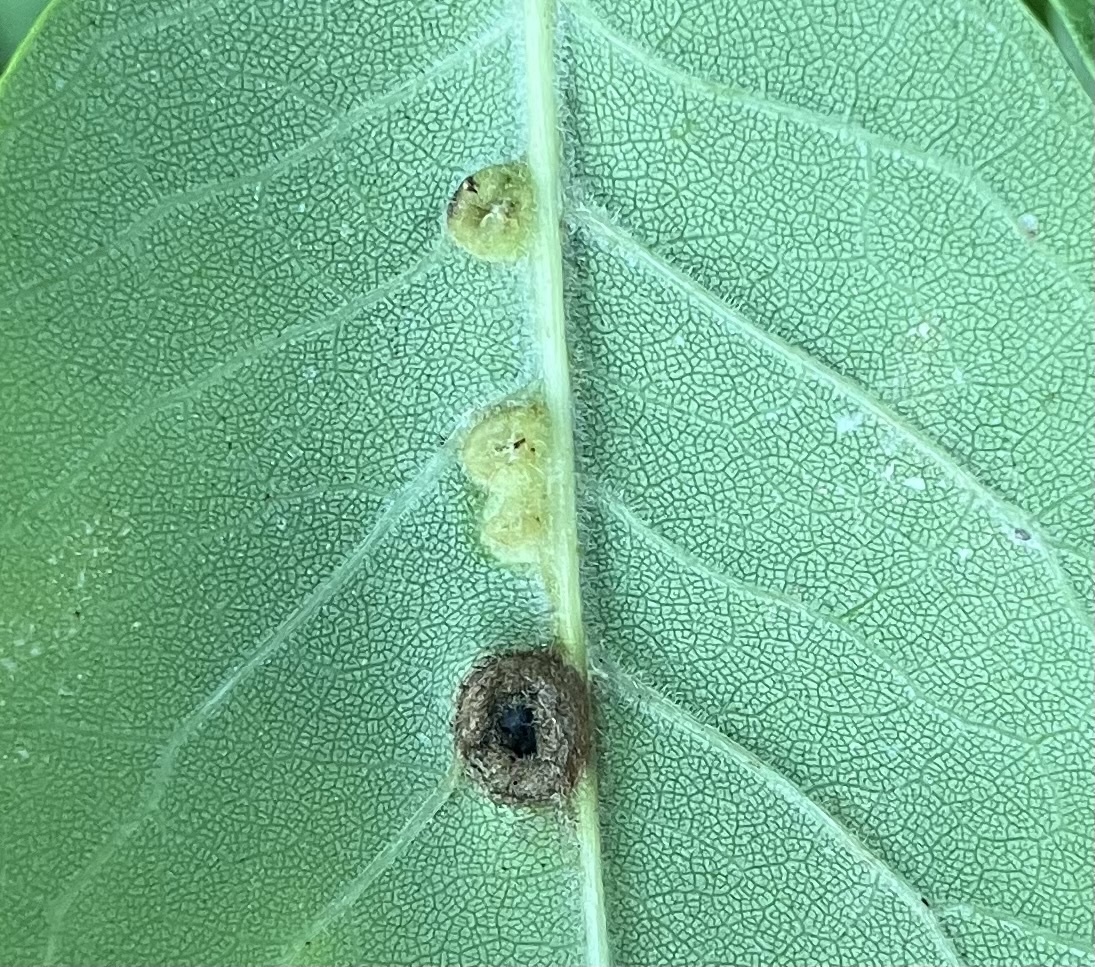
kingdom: Animalia
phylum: Arthropoda
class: Insecta
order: Diptera
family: Cecidomyiidae
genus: Dasineura
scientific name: Dasineura pellex
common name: Ash bullet gall midge
